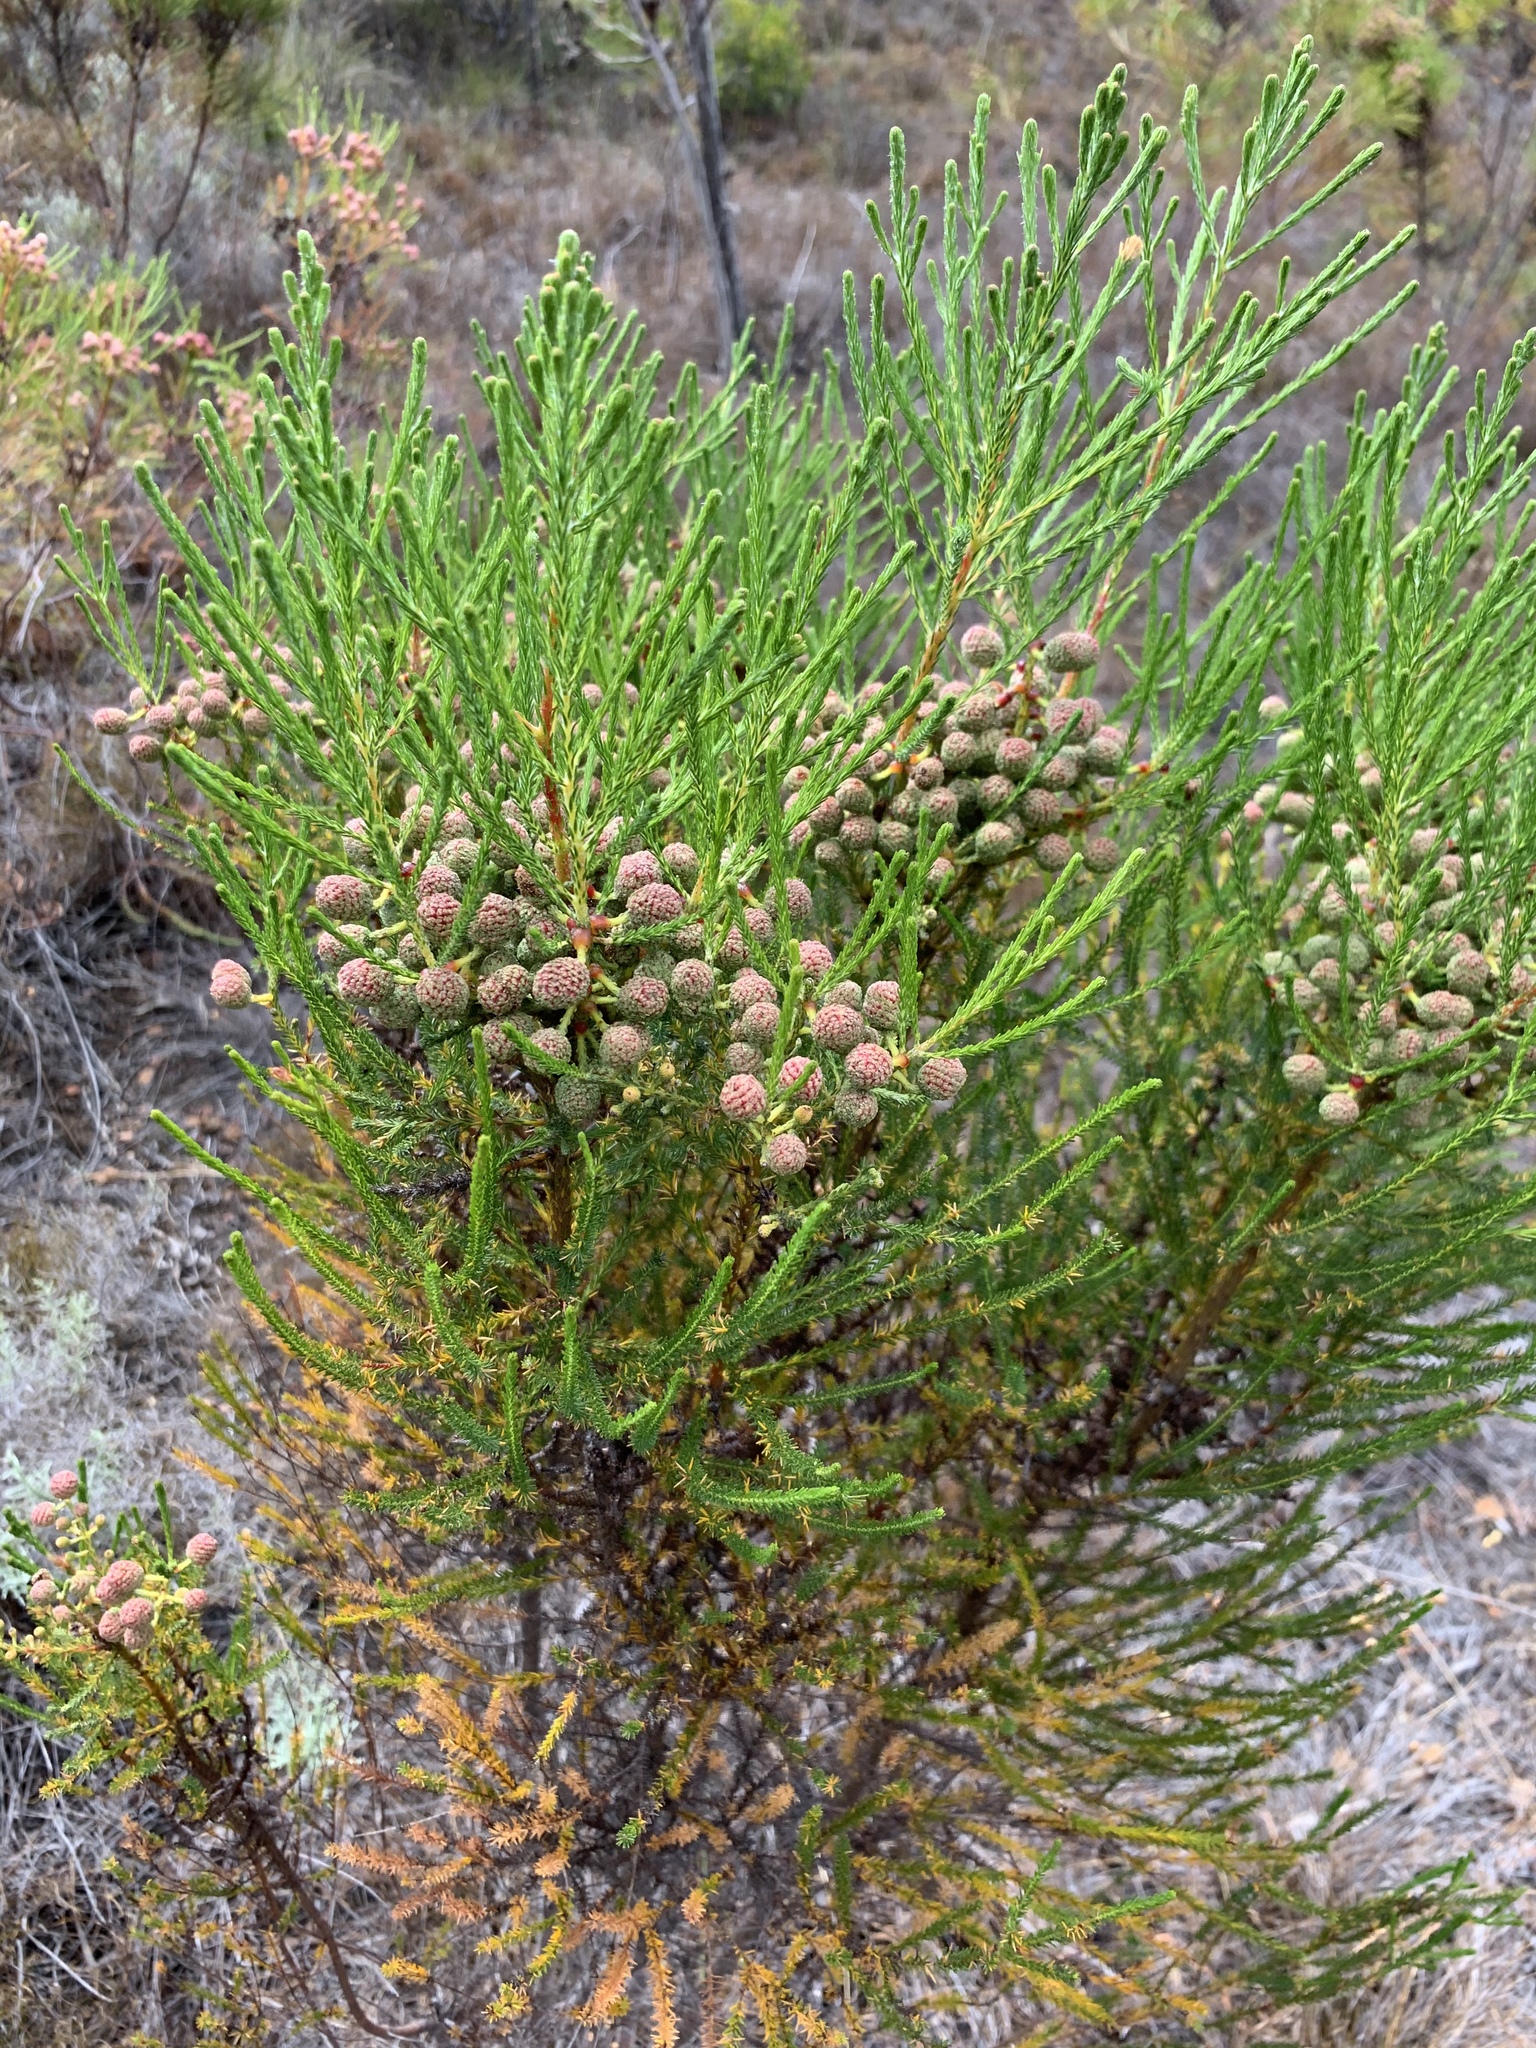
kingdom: Plantae
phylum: Tracheophyta
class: Magnoliopsida
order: Bruniales
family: Bruniaceae
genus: Berzelia
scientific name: Berzelia lanuginosa
